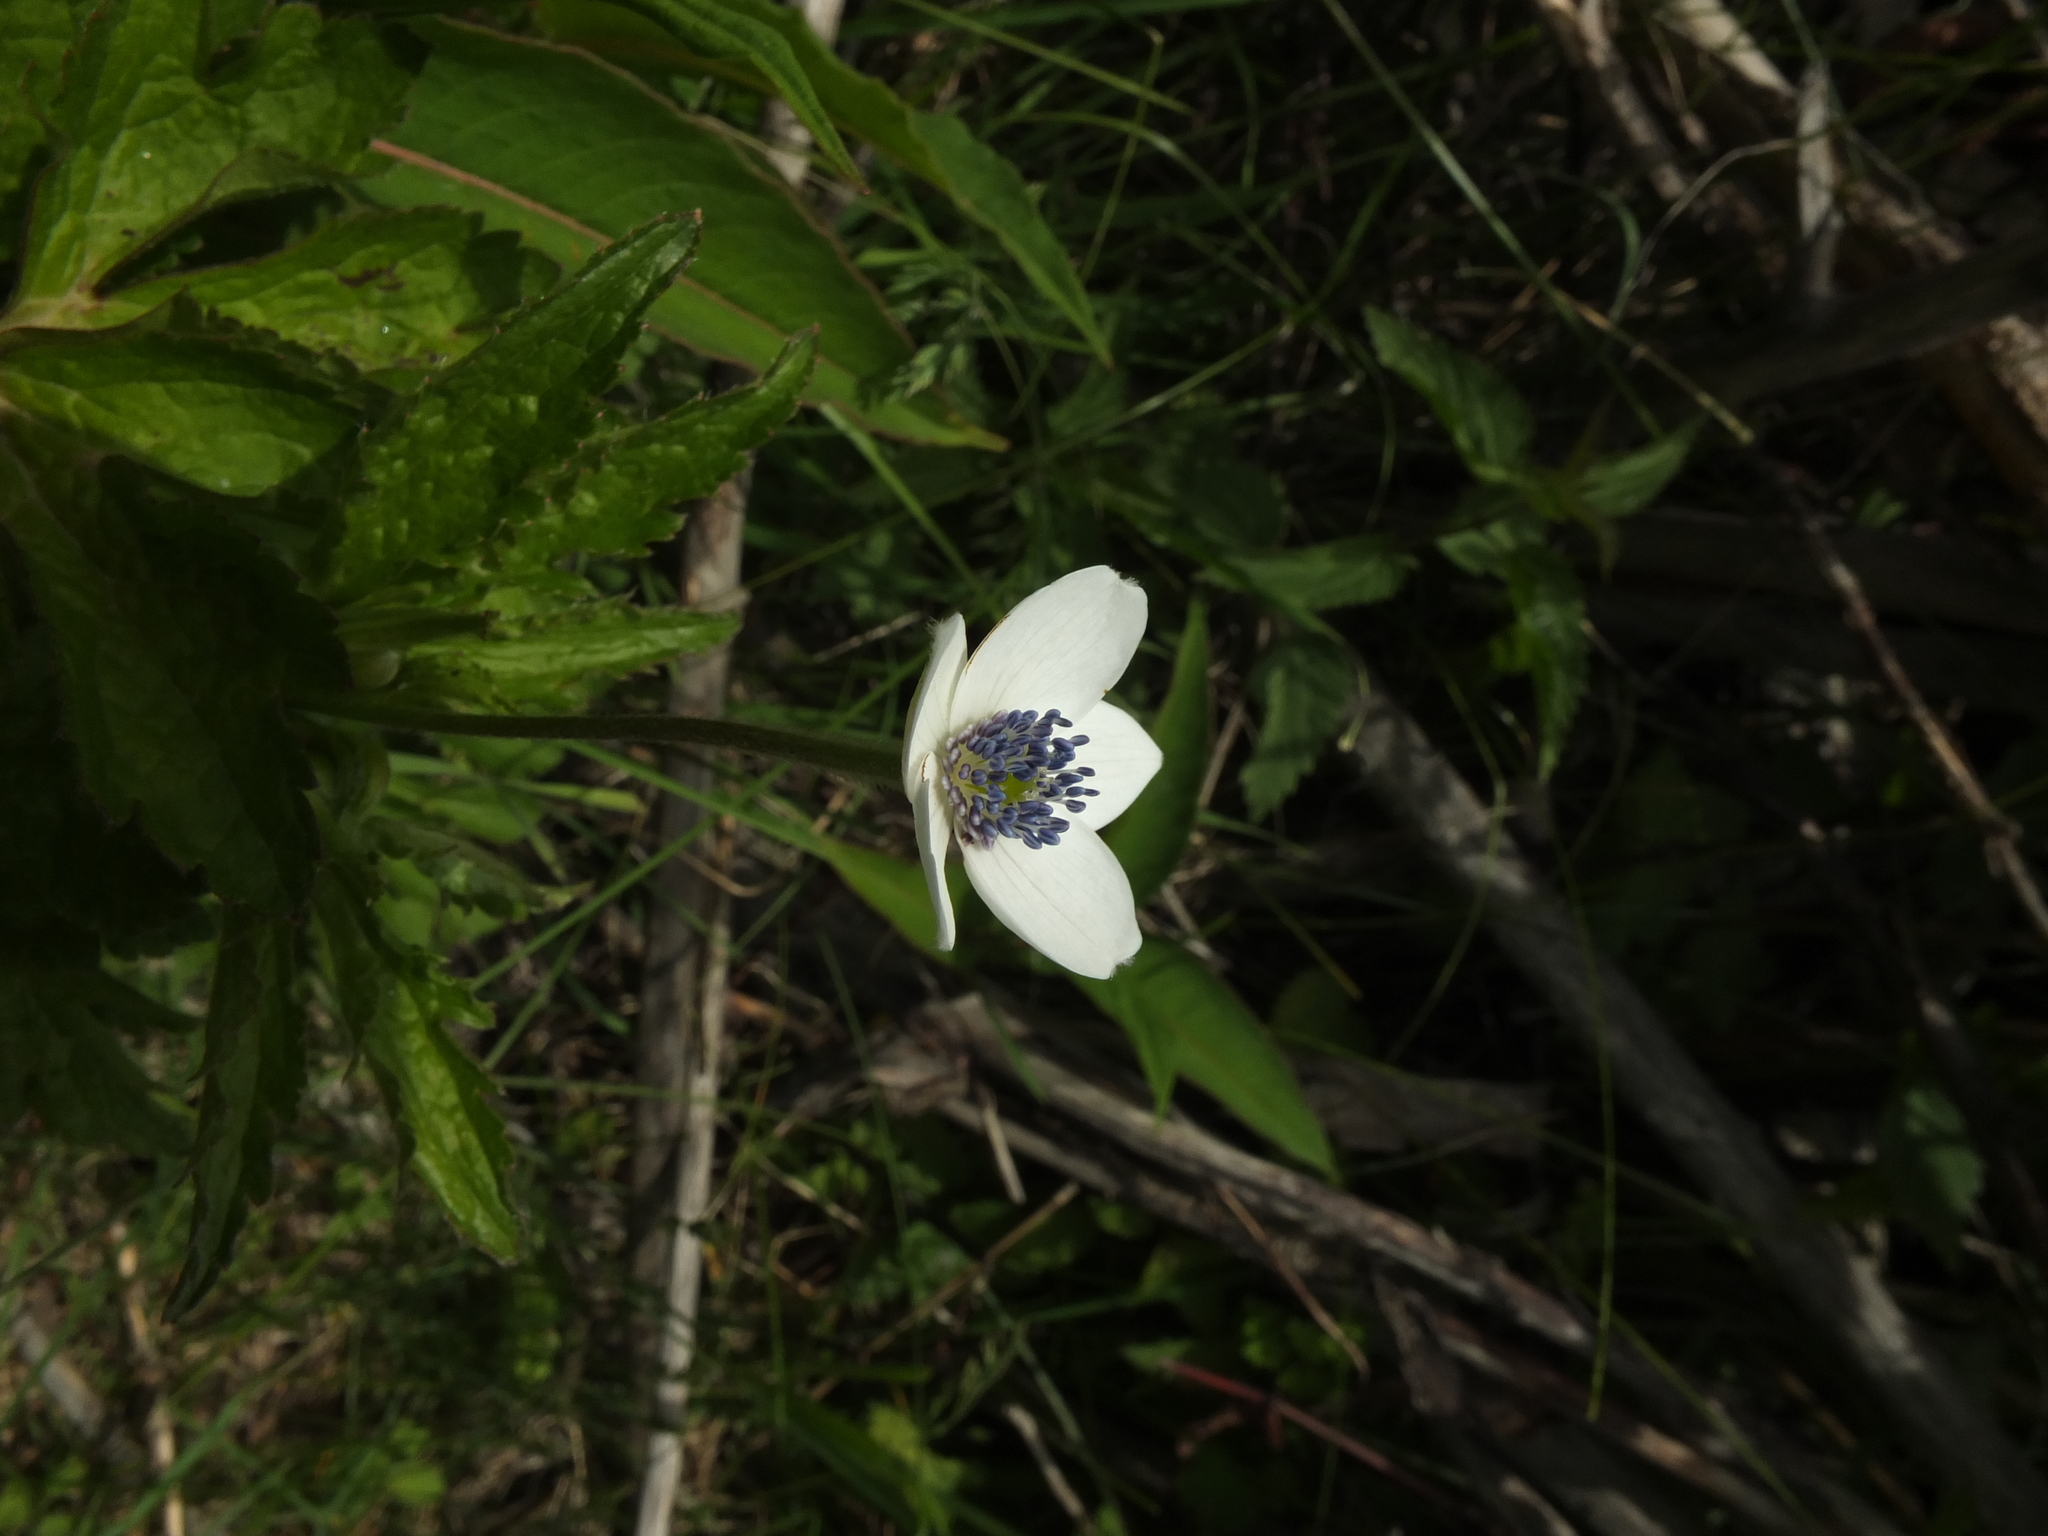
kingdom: Plantae
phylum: Tracheophyta
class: Magnoliopsida
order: Ranunculales
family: Ranunculaceae
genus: Eriocapitella
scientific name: Eriocapitella rivularis
